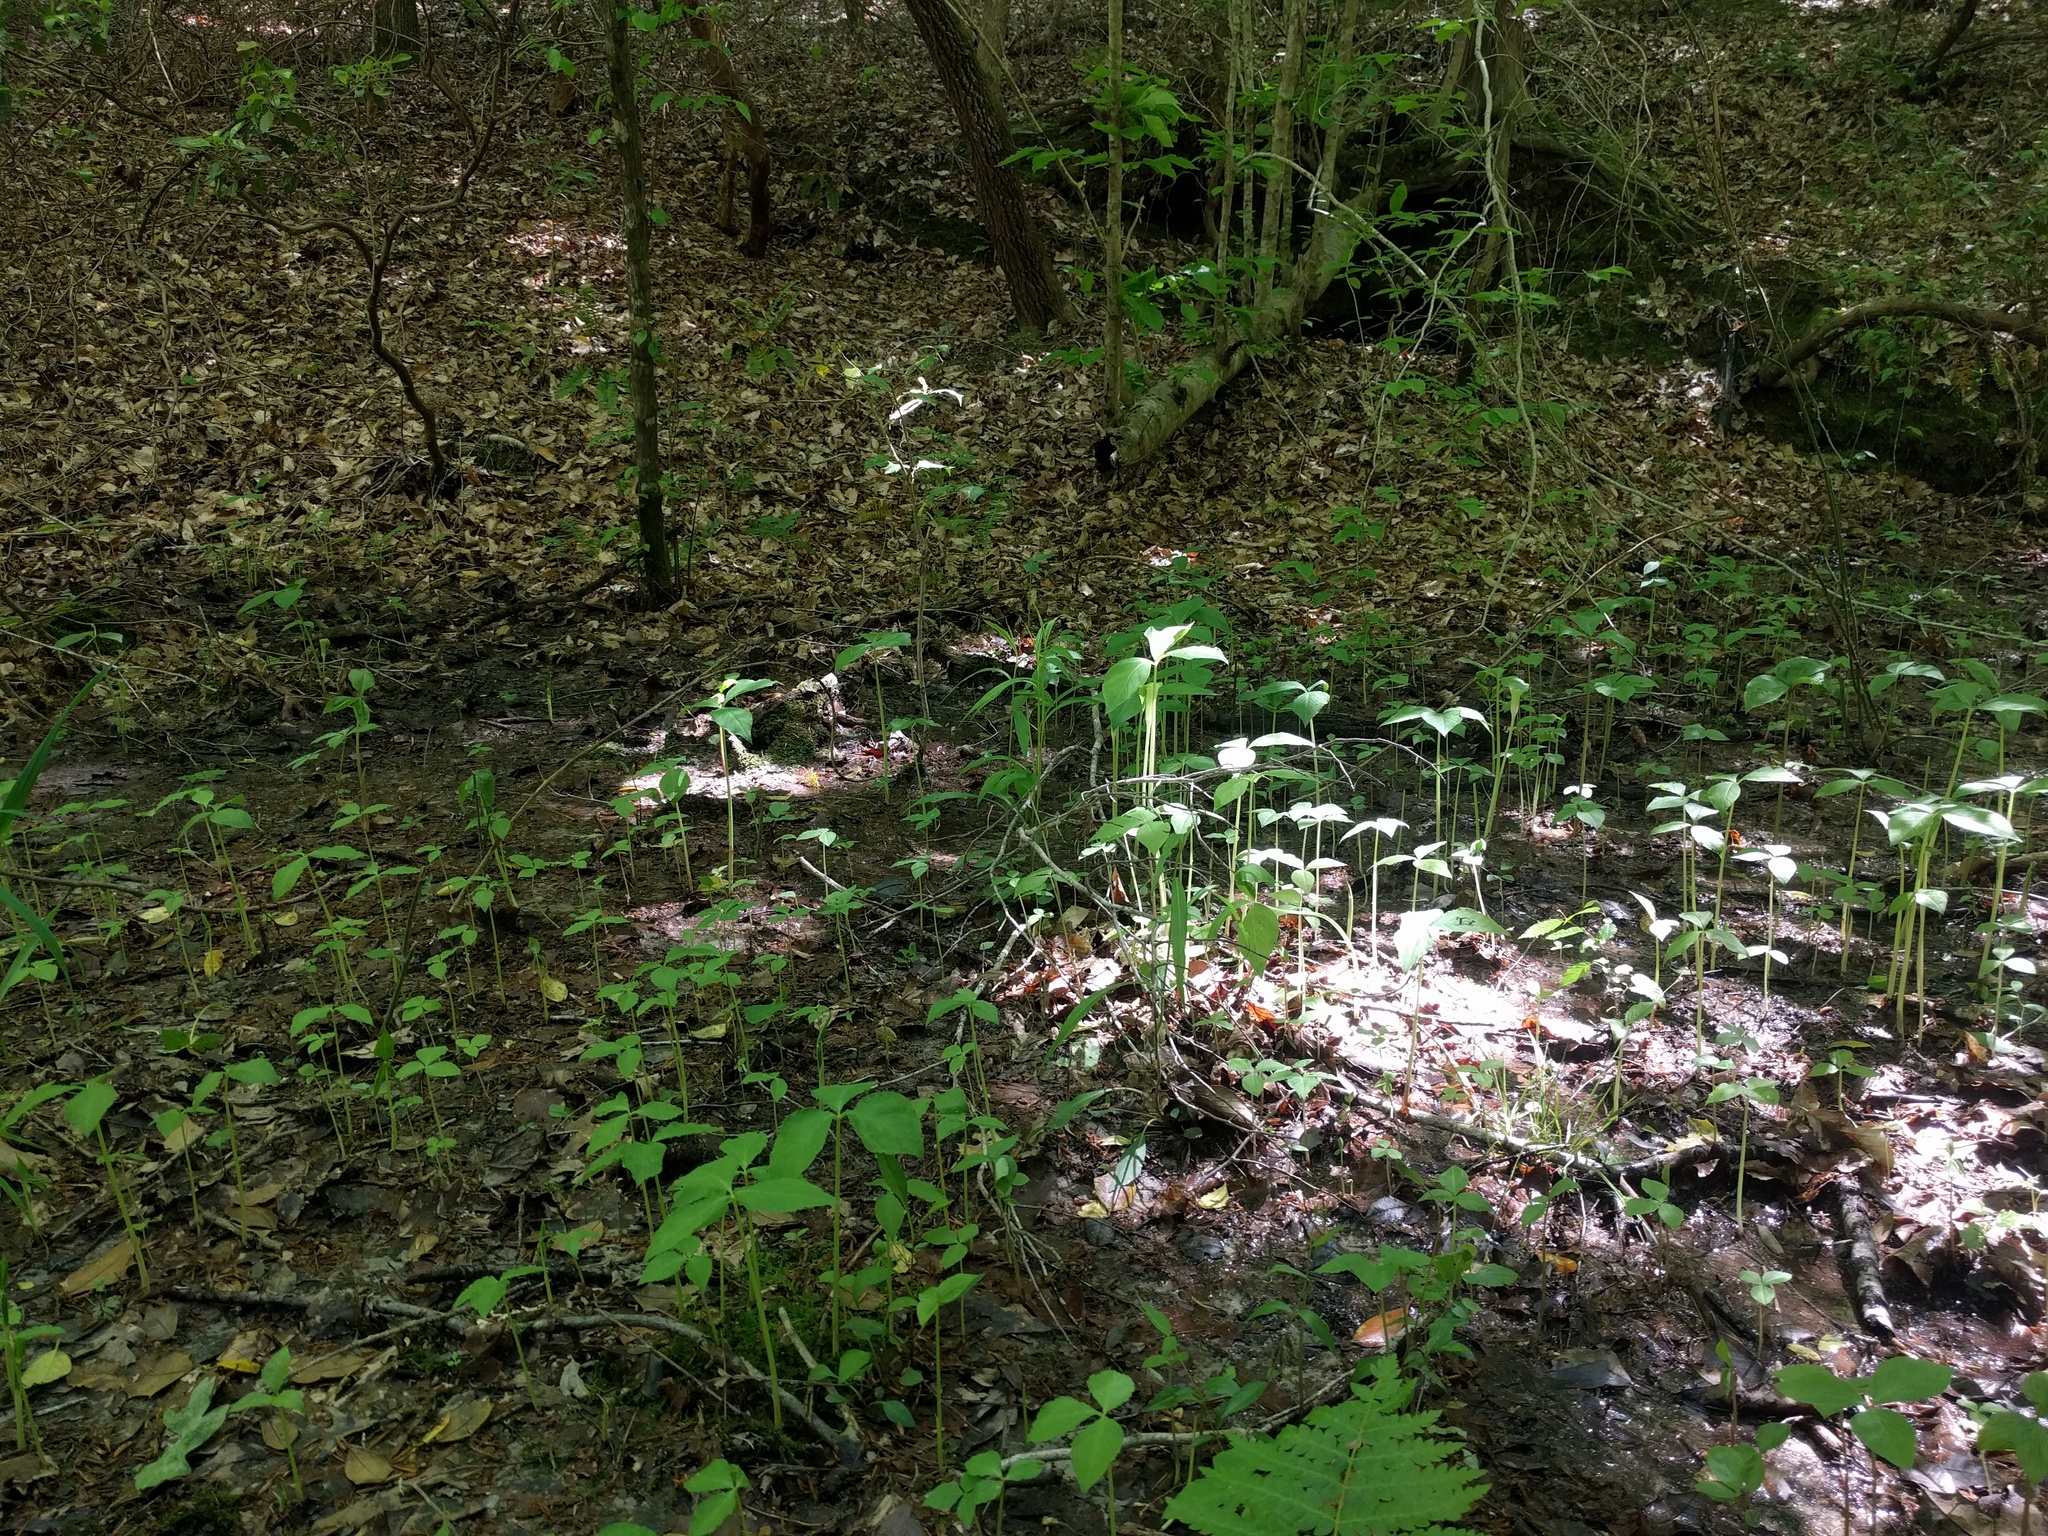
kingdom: Plantae
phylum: Tracheophyta
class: Liliopsida
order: Alismatales
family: Araceae
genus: Arisaema
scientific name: Arisaema triphyllum
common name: Jack-in-the-pulpit
